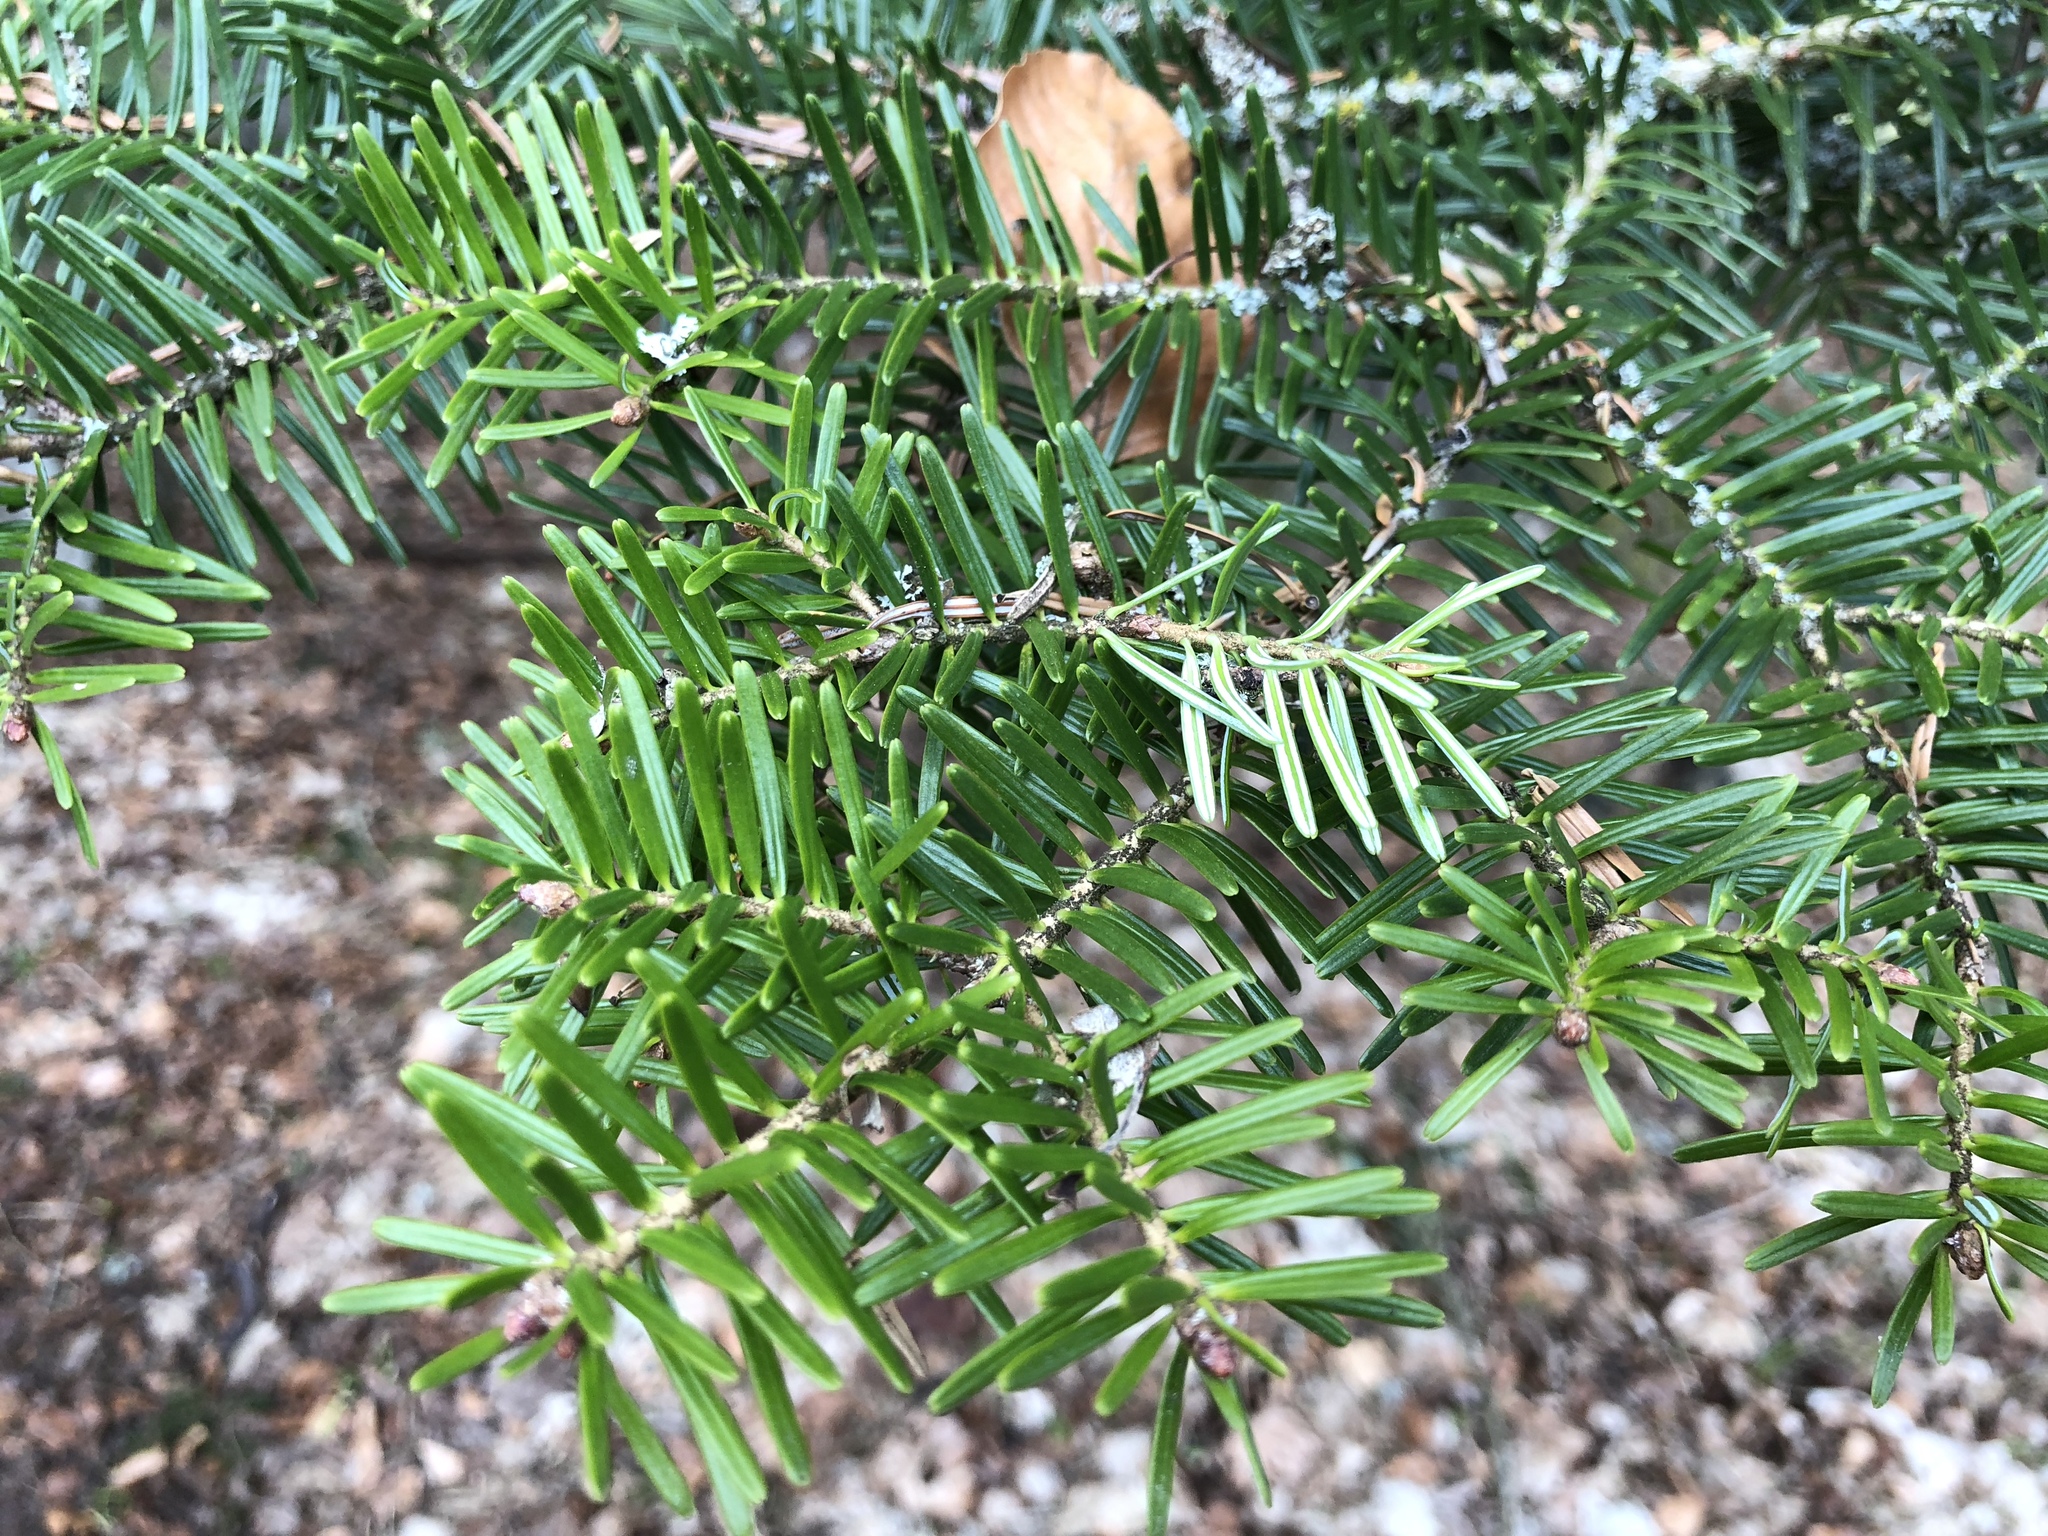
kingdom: Plantae
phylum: Tracheophyta
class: Pinopsida
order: Pinales
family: Pinaceae
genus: Abies
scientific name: Abies alba
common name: Silver fir
